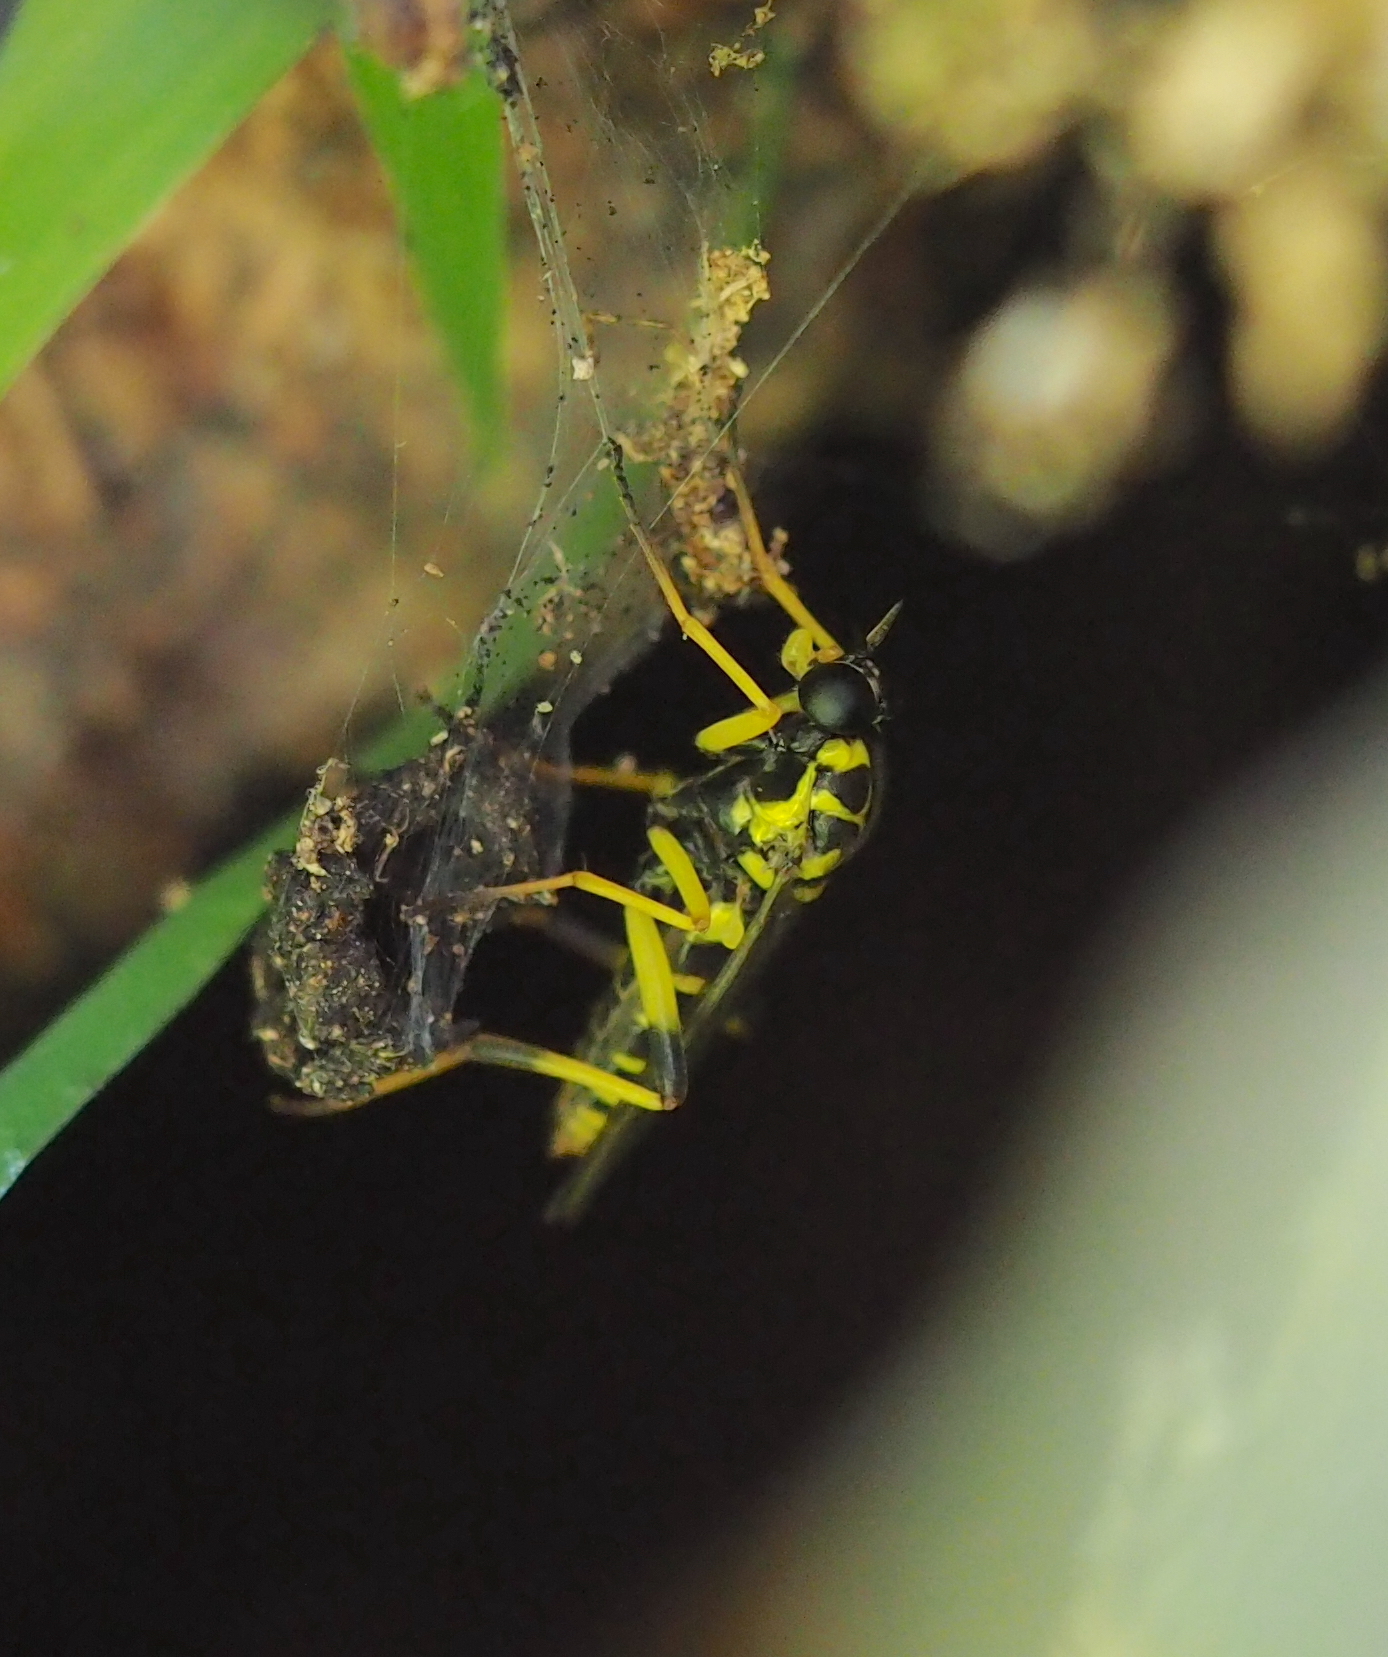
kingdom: Animalia
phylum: Arthropoda
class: Insecta
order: Diptera
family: Xylomyidae
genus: Xylomya
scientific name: Xylomya maculata
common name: Wasp wood-soldierfly
